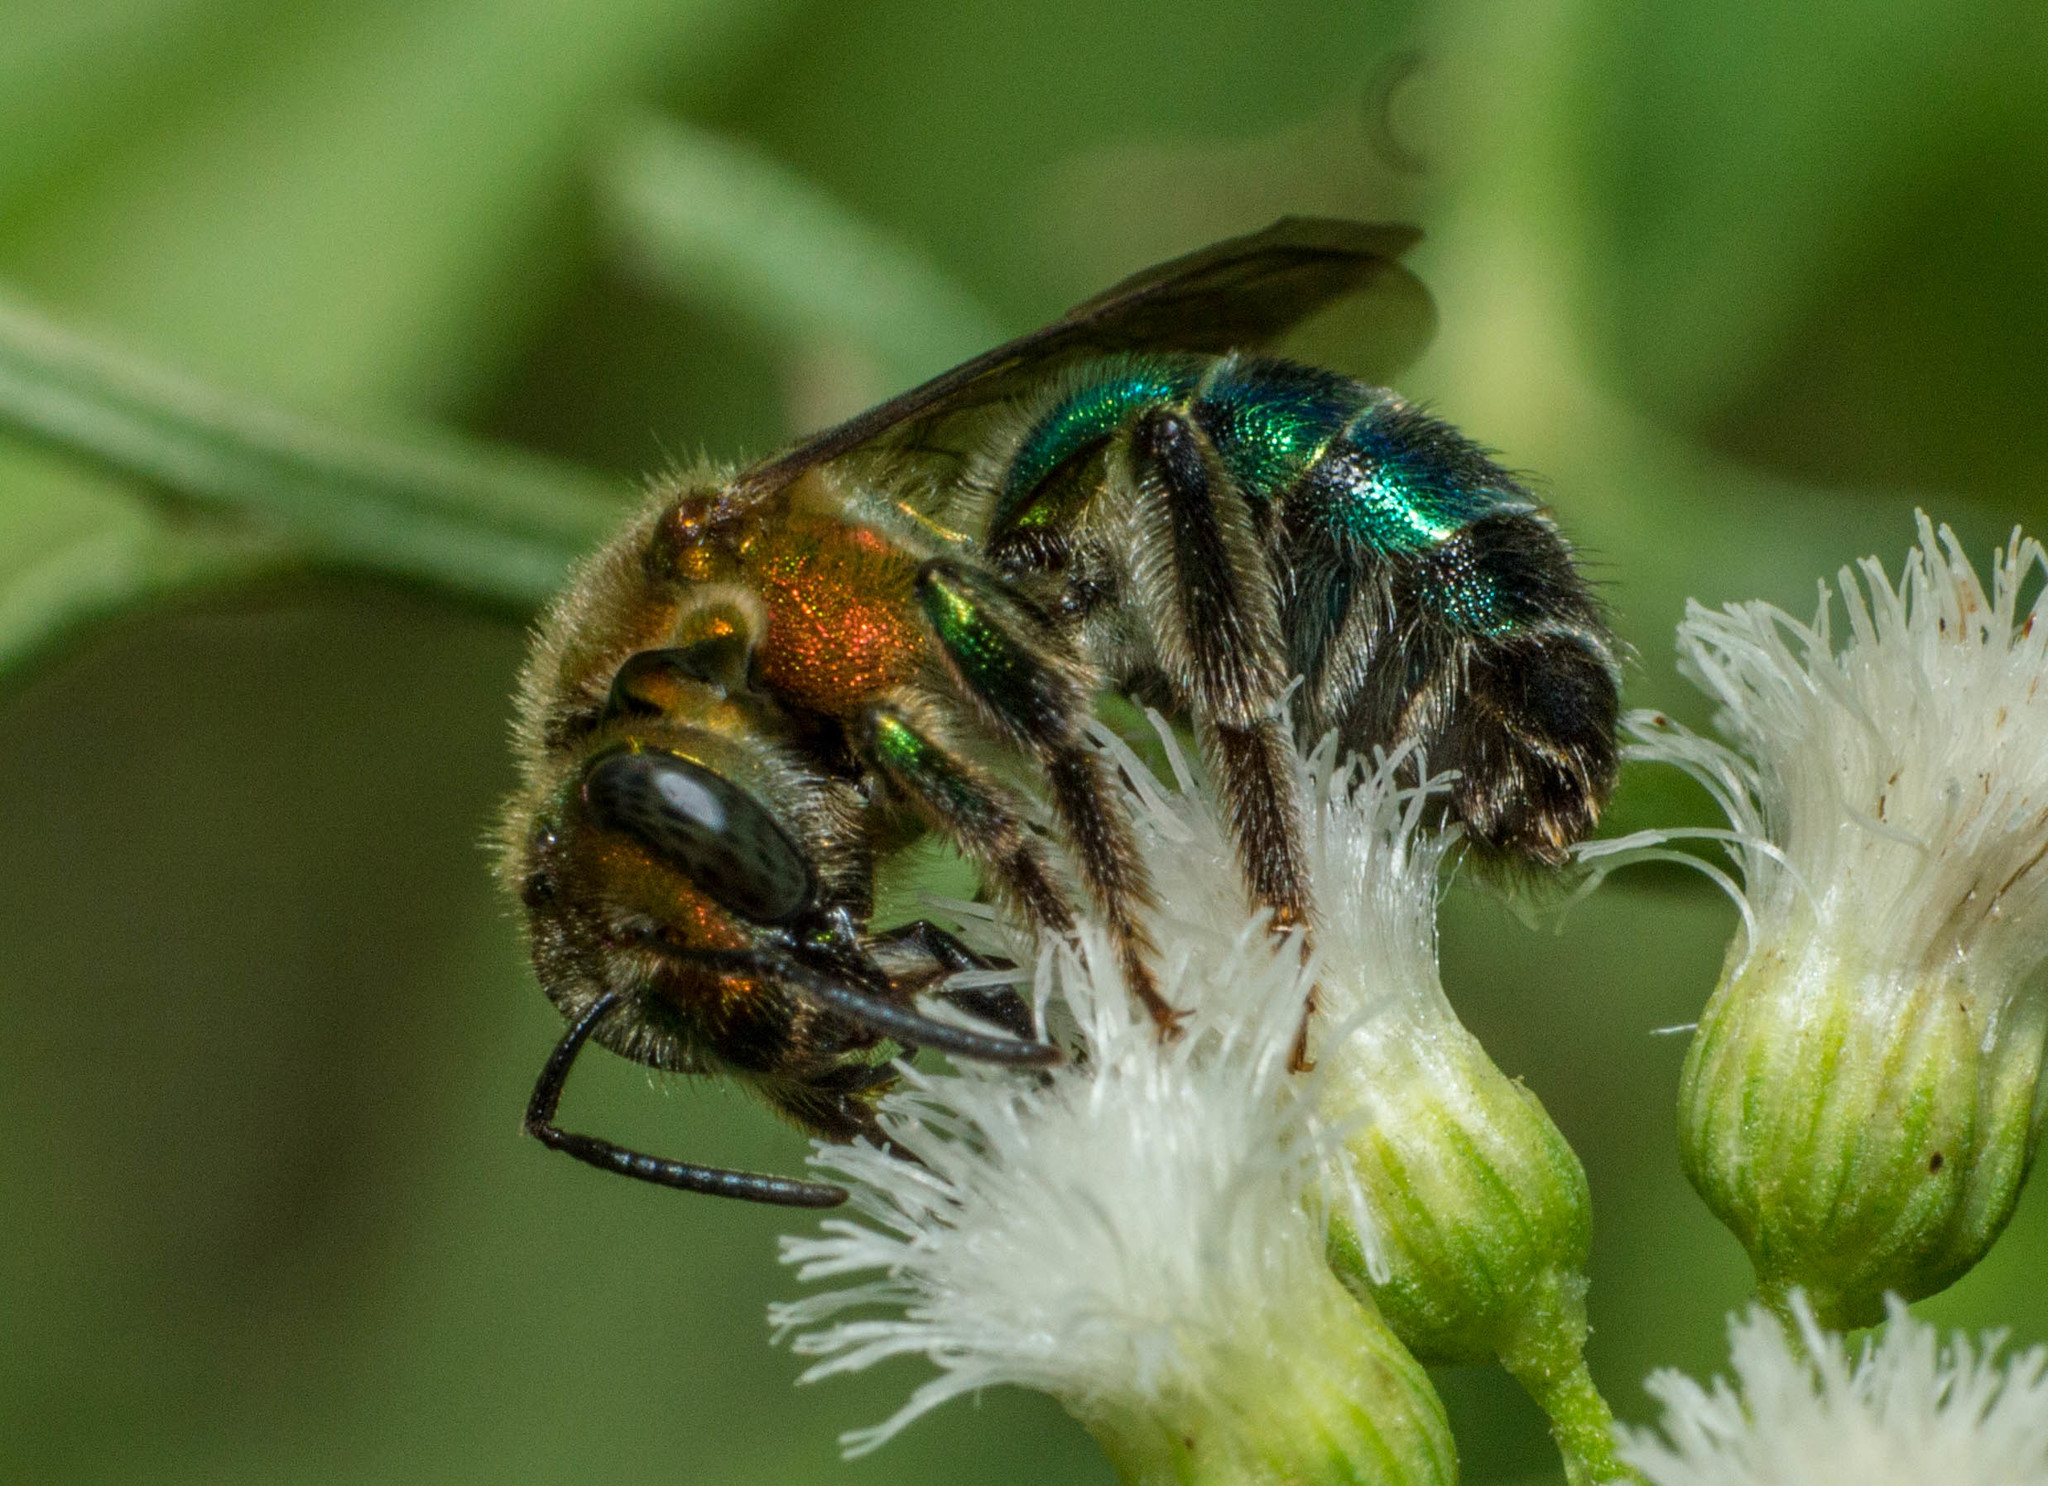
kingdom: Animalia
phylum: Arthropoda
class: Insecta
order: Hymenoptera
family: Halictidae
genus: Augochloropsis
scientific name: Augochloropsis tupacamaru
